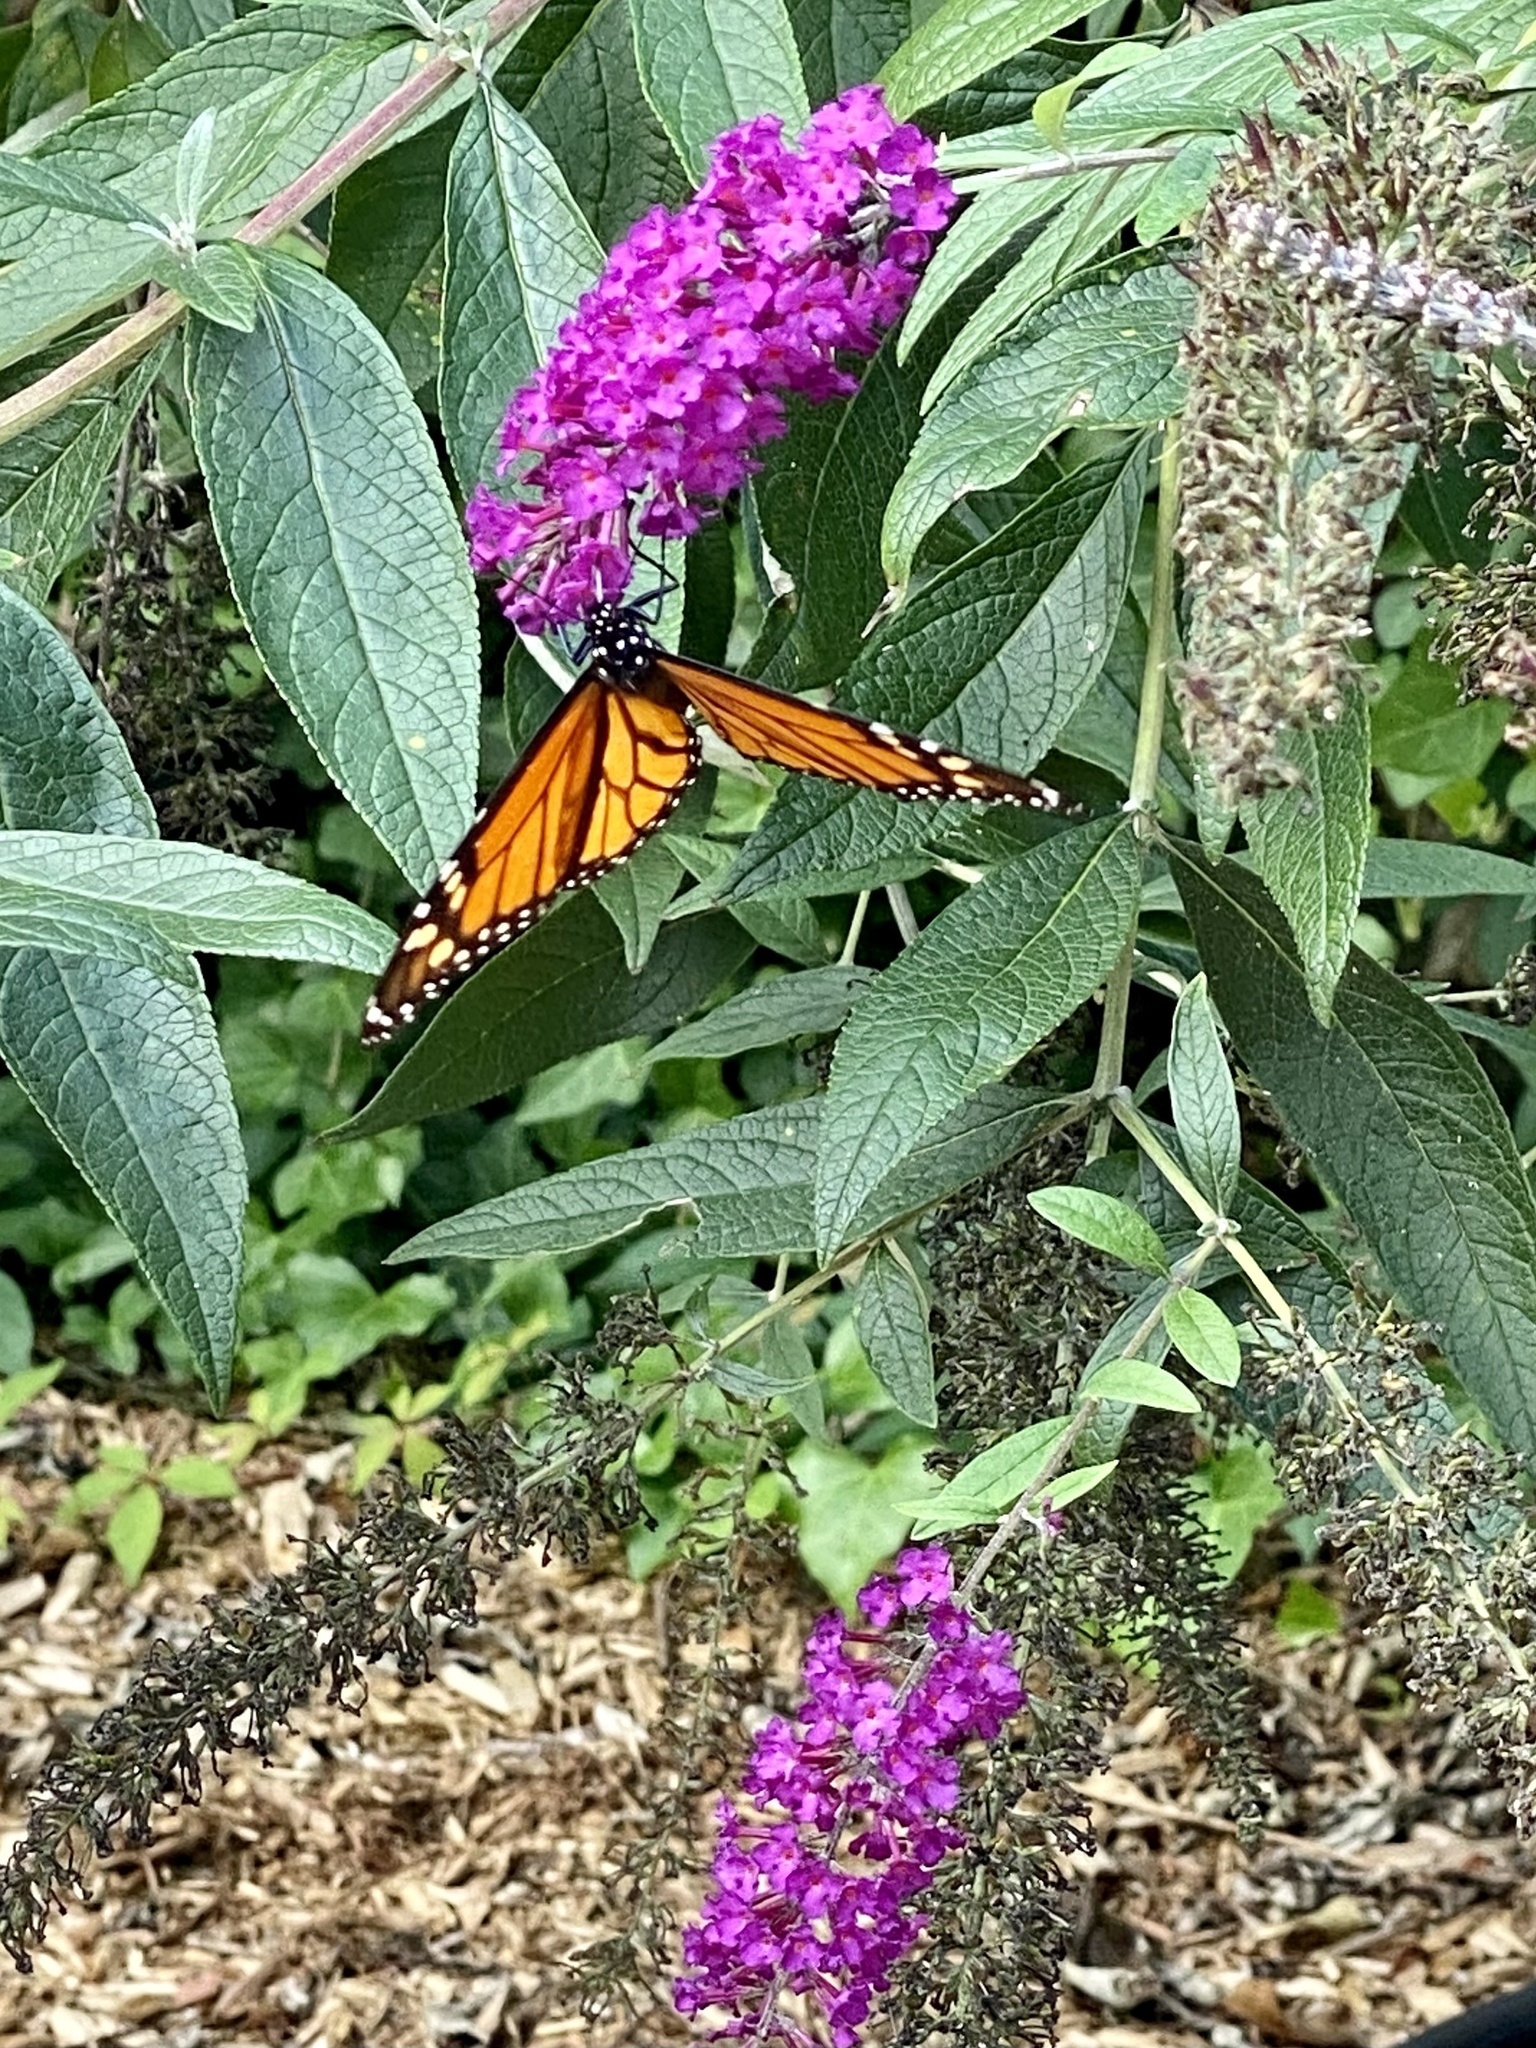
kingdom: Animalia
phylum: Arthropoda
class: Insecta
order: Lepidoptera
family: Nymphalidae
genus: Danaus
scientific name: Danaus plexippus
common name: Monarch
